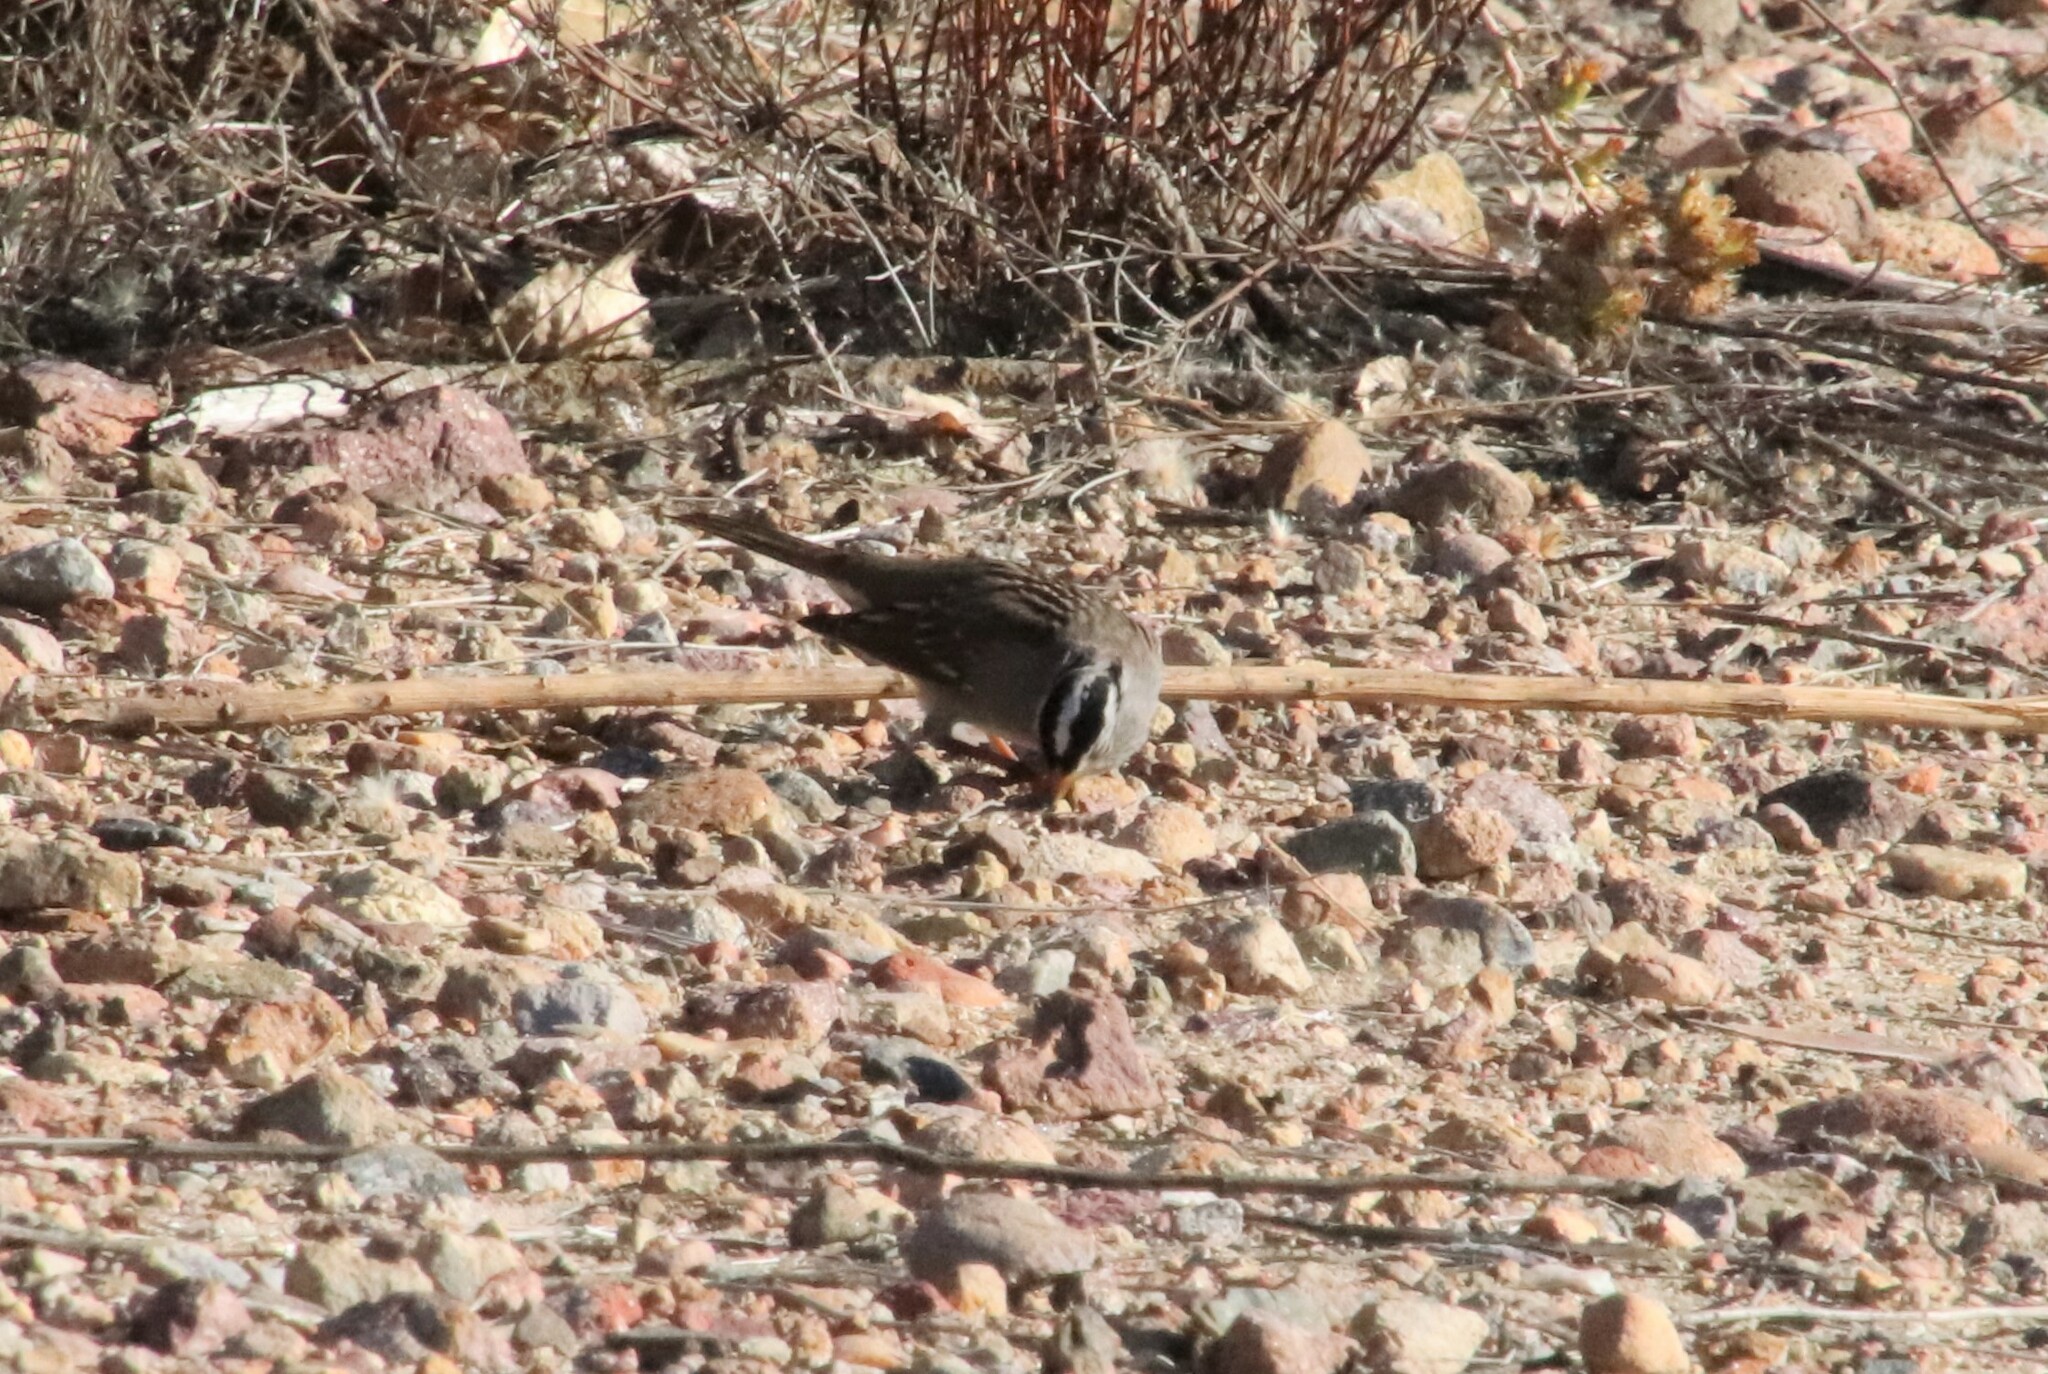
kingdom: Animalia
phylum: Chordata
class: Aves
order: Passeriformes
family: Passerellidae
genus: Zonotrichia
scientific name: Zonotrichia leucophrys
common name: White-crowned sparrow
